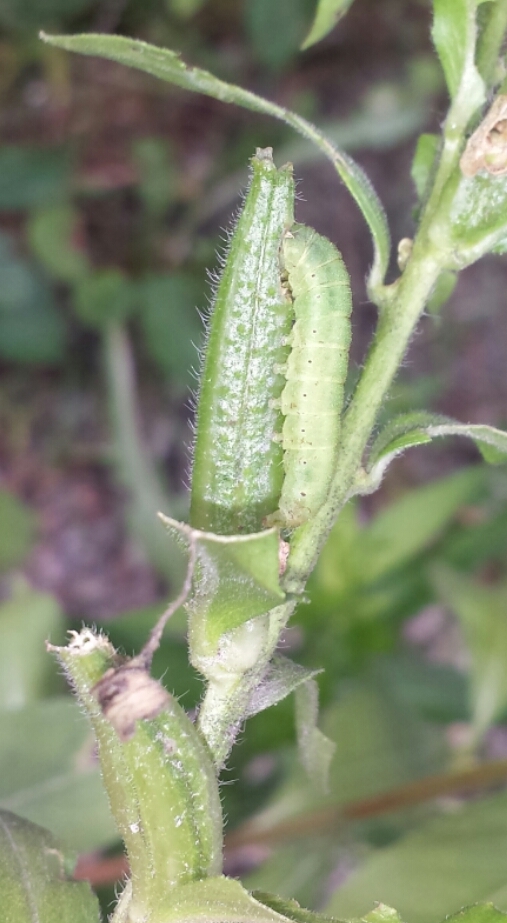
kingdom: Animalia
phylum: Arthropoda
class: Insecta
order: Lepidoptera
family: Noctuidae
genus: Schinia
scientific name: Schinia florida
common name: Primrose moth
